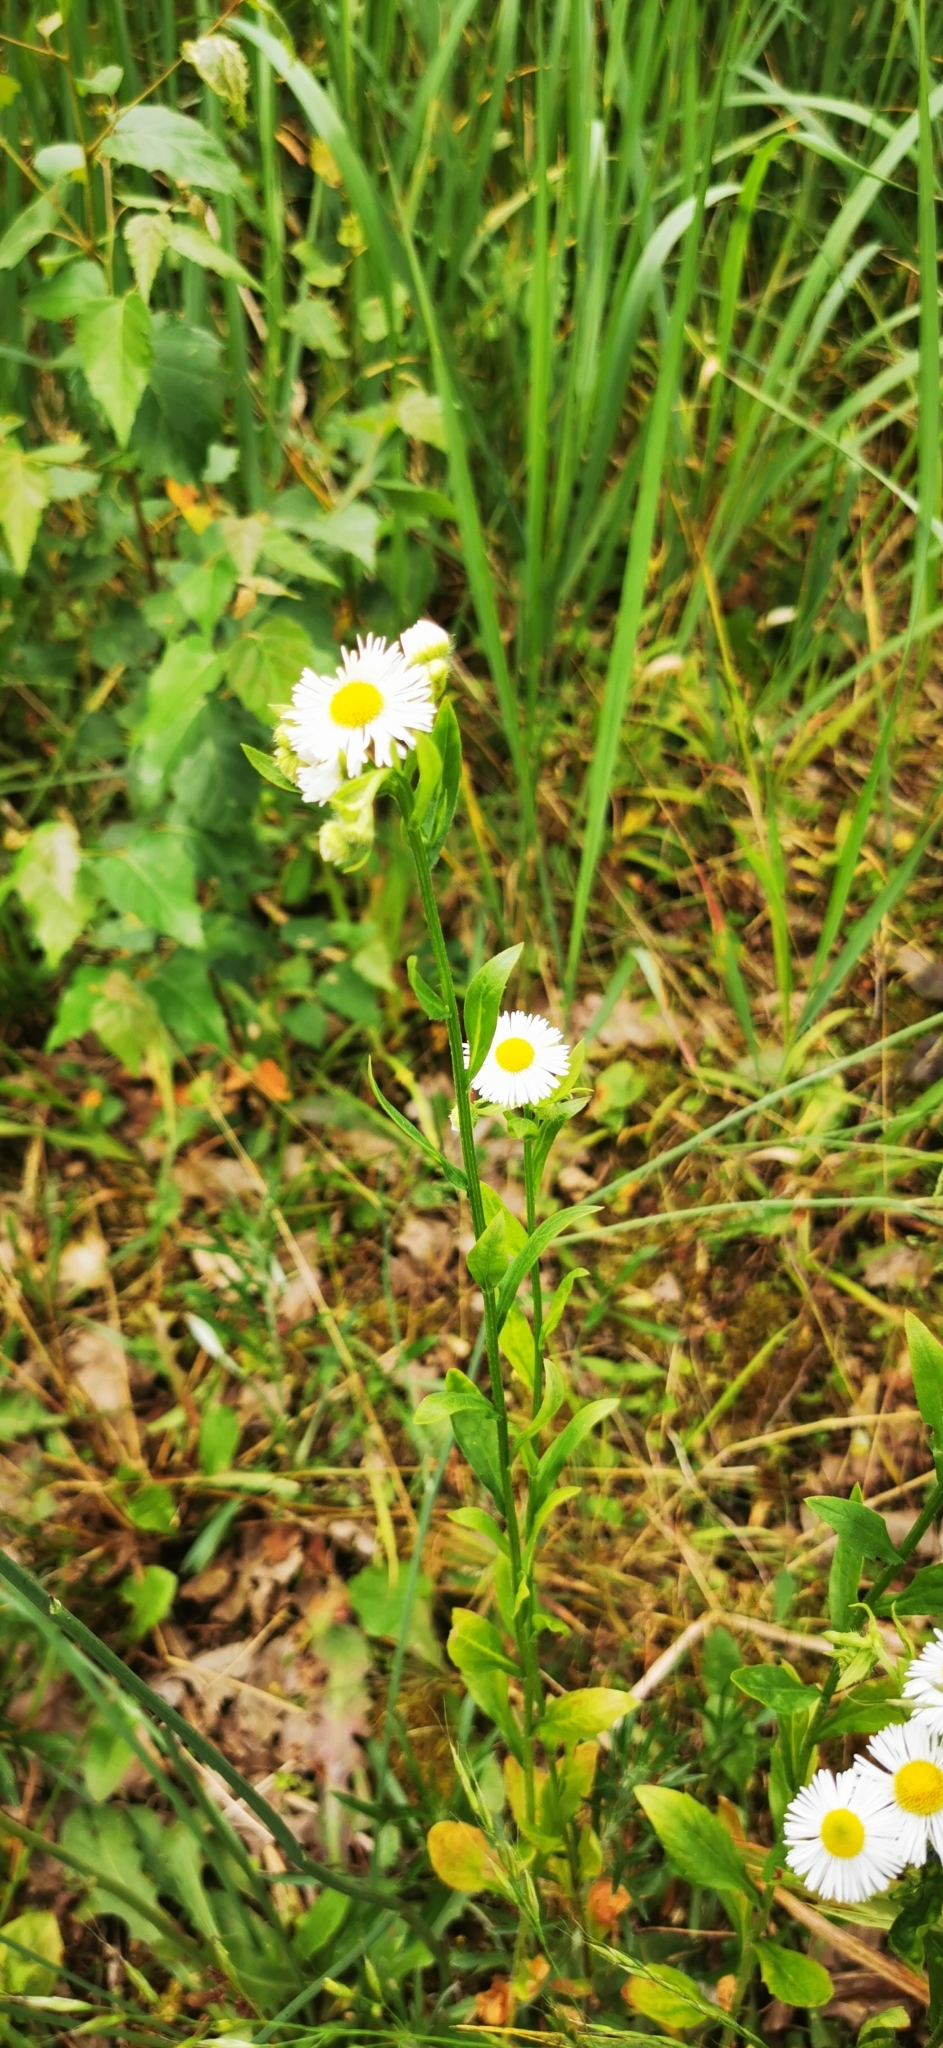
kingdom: Plantae
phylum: Tracheophyta
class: Magnoliopsida
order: Asterales
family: Asteraceae
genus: Erigeron
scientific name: Erigeron annuus
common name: Tall fleabane
